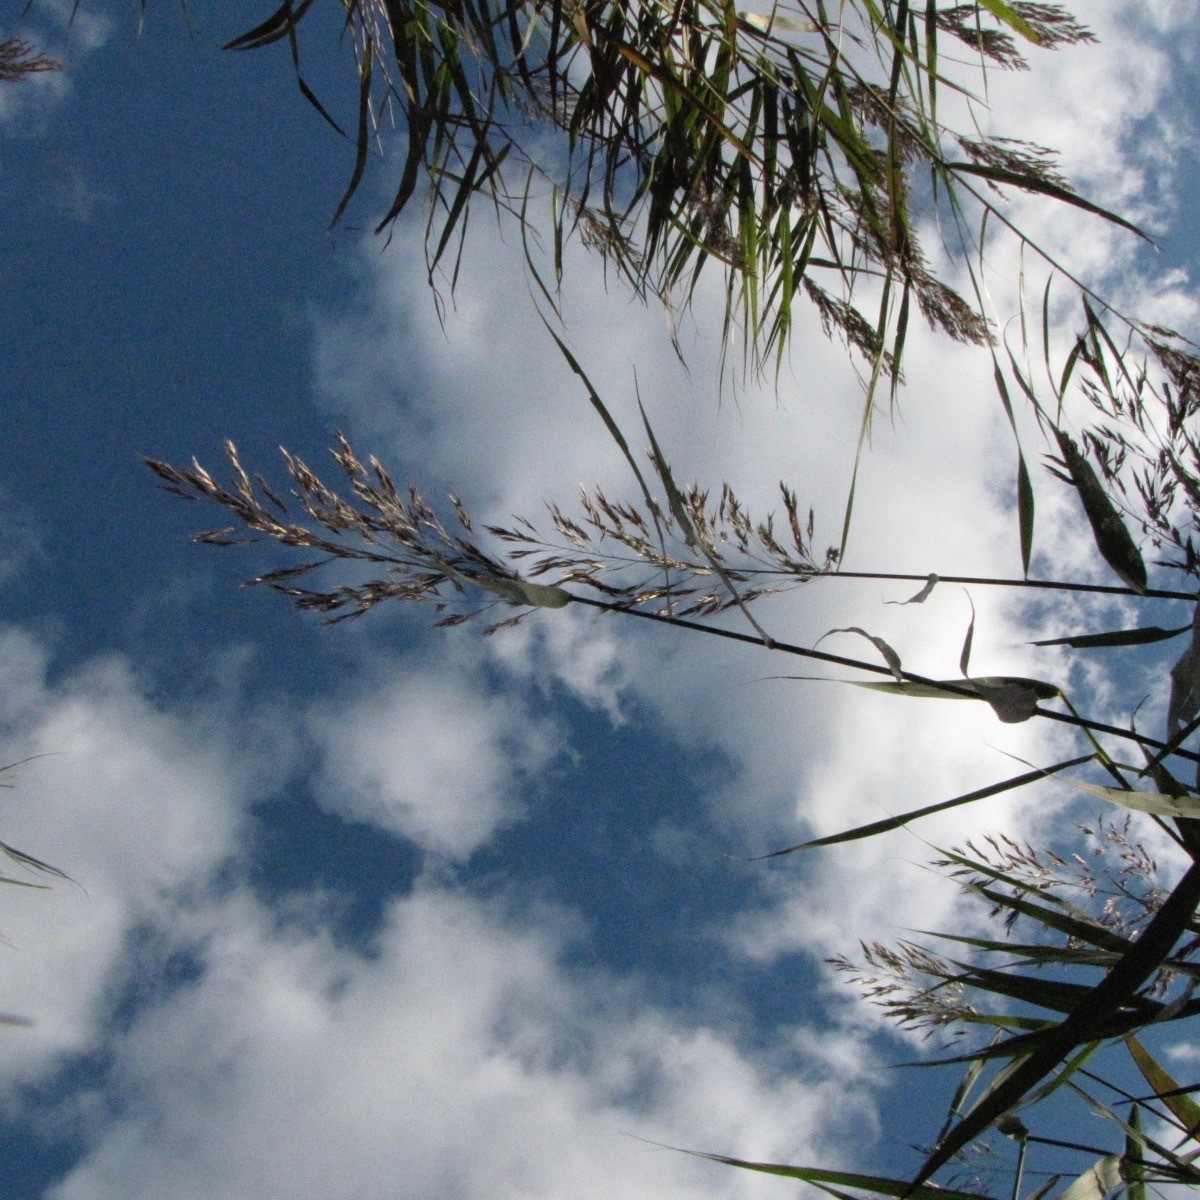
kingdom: Plantae
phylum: Tracheophyta
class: Liliopsida
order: Poales
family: Poaceae
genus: Phragmites
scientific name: Phragmites australis
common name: Common reed
